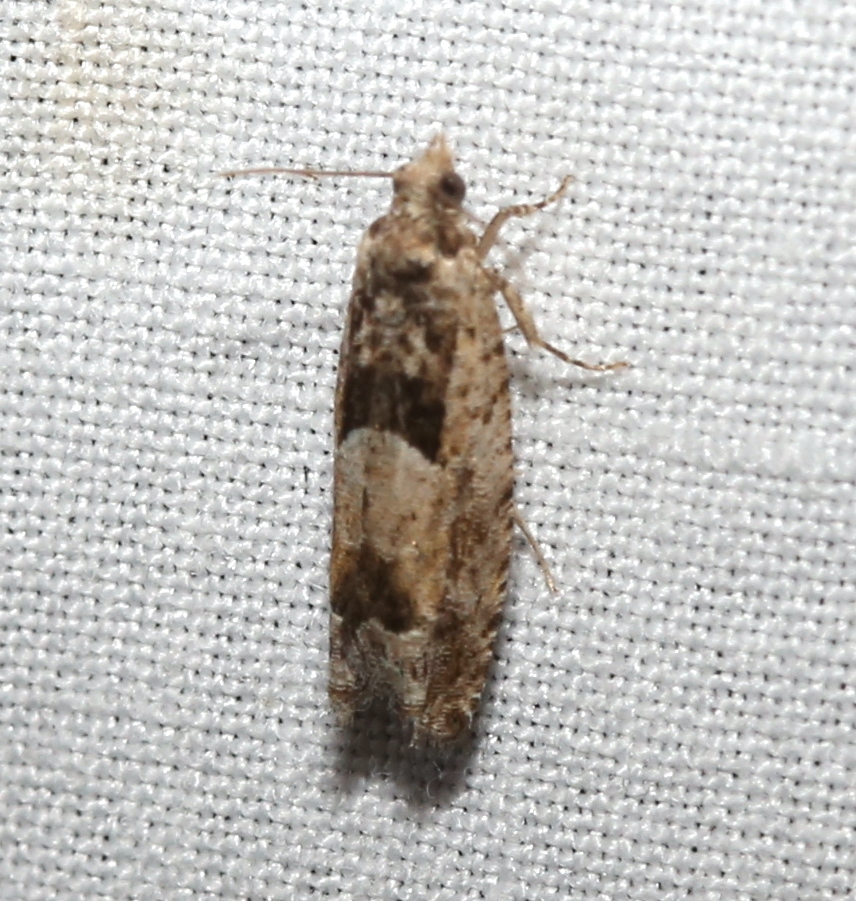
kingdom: Animalia
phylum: Arthropoda
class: Insecta
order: Lepidoptera
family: Tortricidae
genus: Pseudexentera
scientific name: Pseudexentera hodsoni
